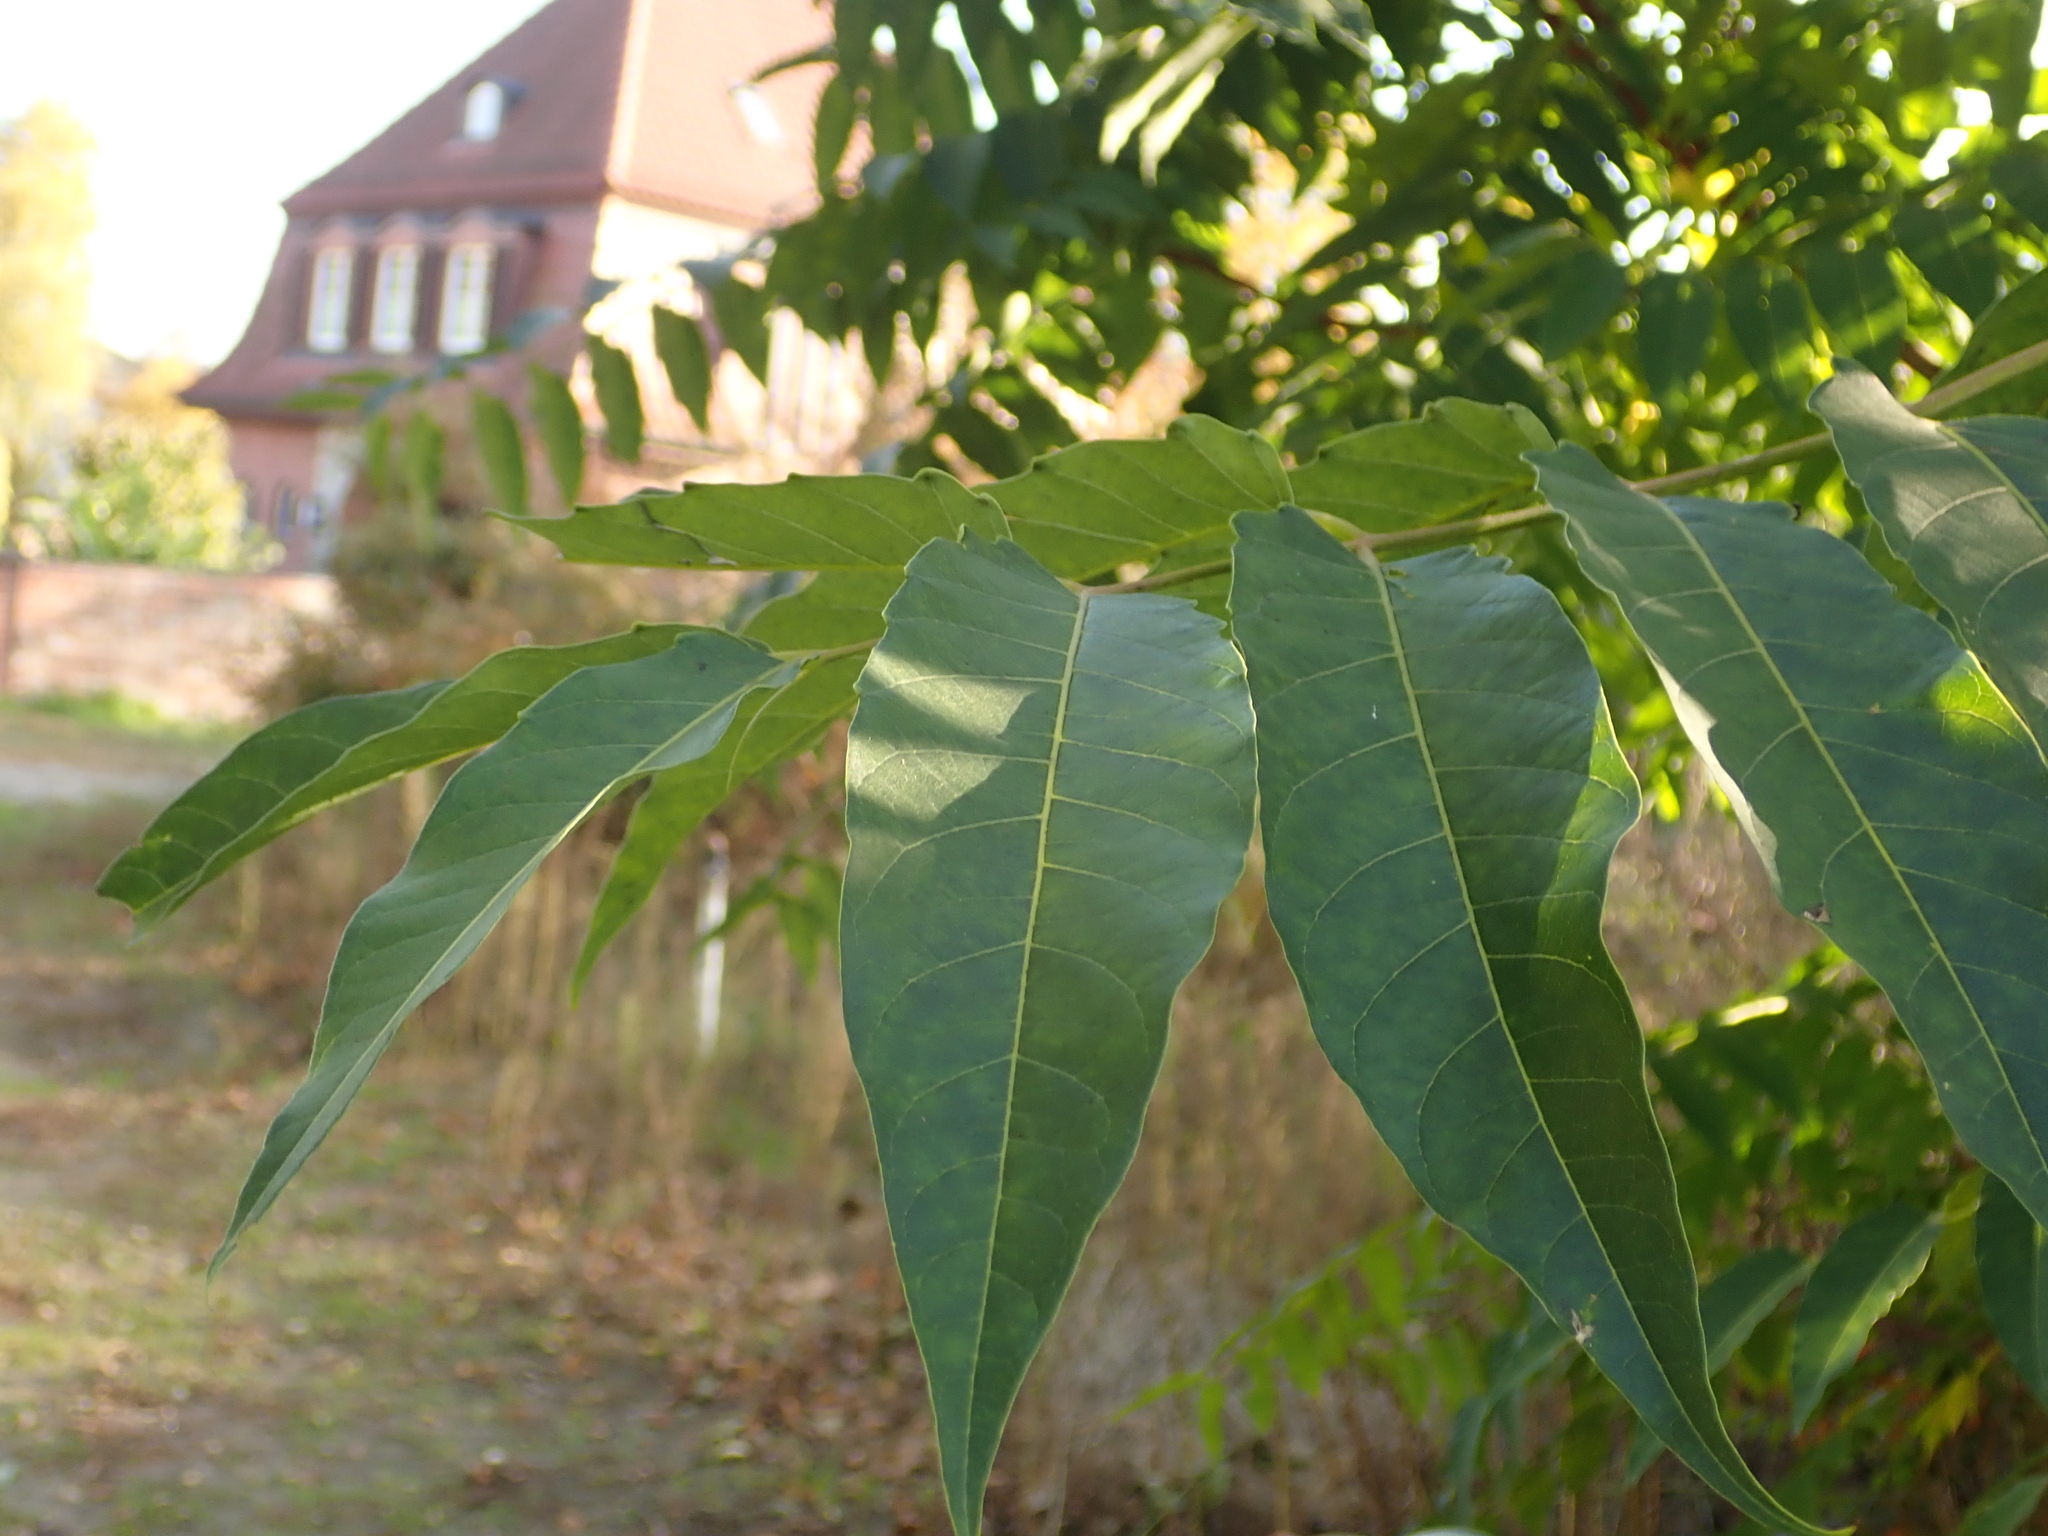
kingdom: Plantae
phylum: Tracheophyta
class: Magnoliopsida
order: Sapindales
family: Simaroubaceae
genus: Ailanthus
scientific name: Ailanthus altissima
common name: Tree-of-heaven
